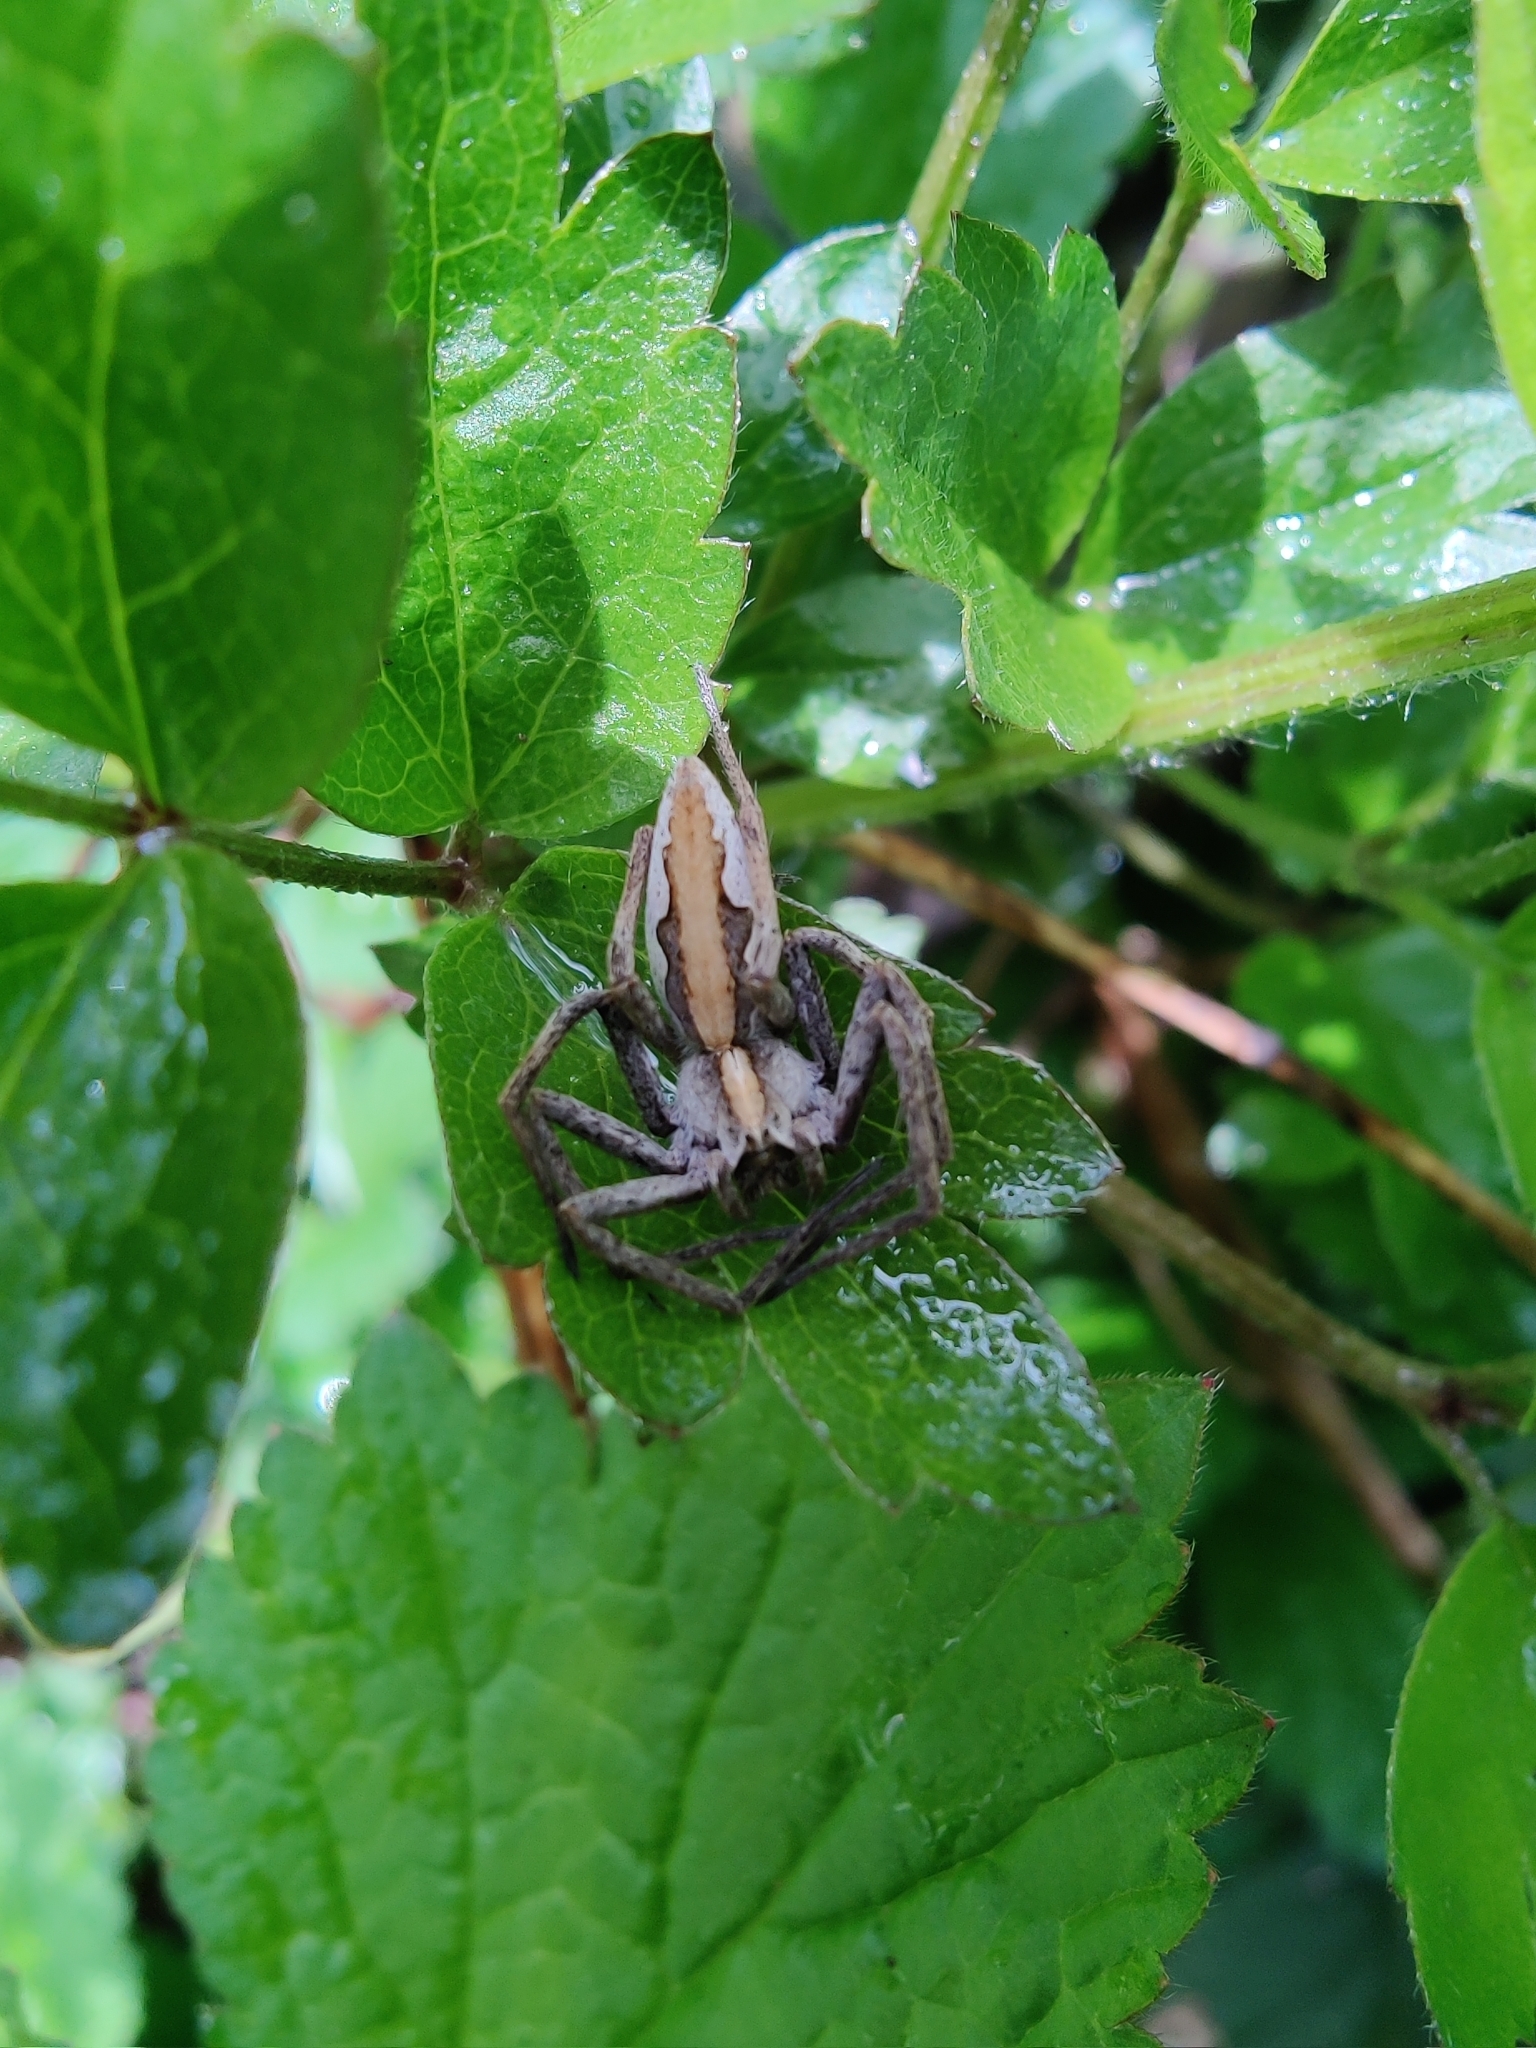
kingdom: Animalia
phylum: Arthropoda
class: Arachnida
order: Araneae
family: Pisauridae
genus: Pisaura
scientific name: Pisaura mirabilis
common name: Tent spider
